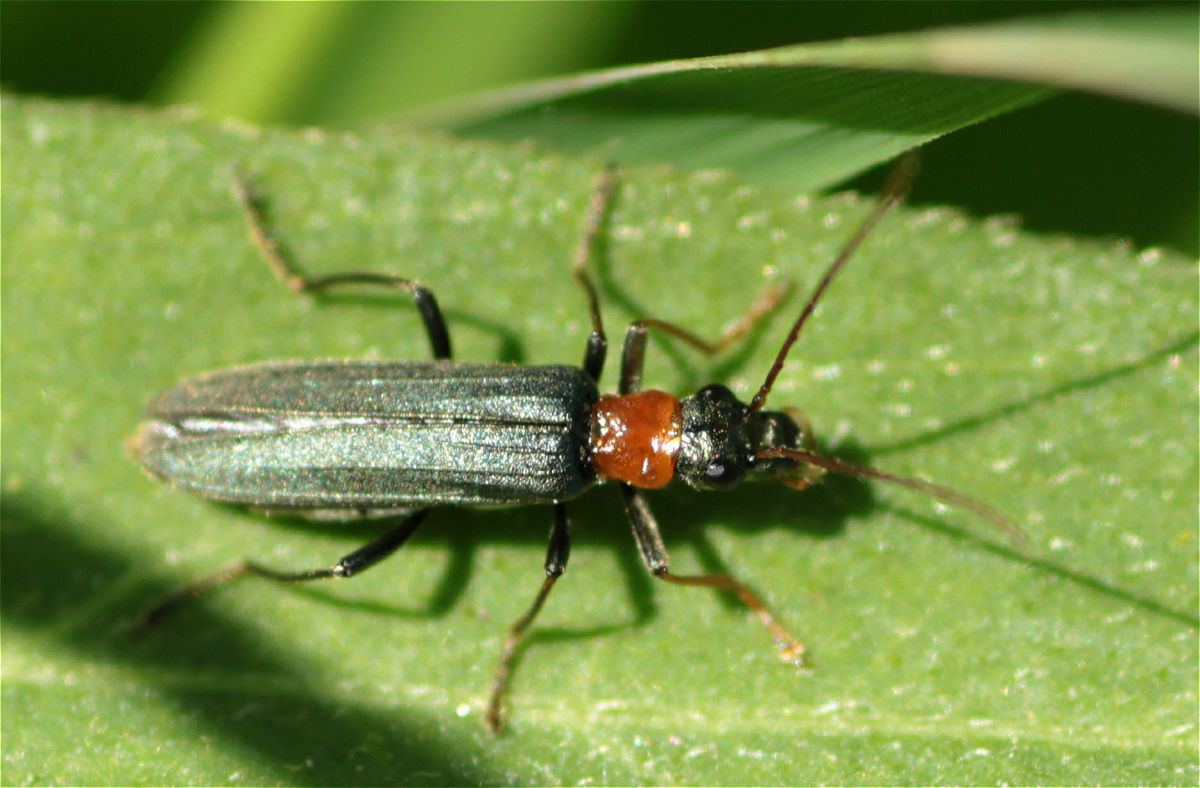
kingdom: Animalia
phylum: Arthropoda
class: Insecta
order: Coleoptera
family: Oedemeridae
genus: Oedemera
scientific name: Oedemera croceicollis
